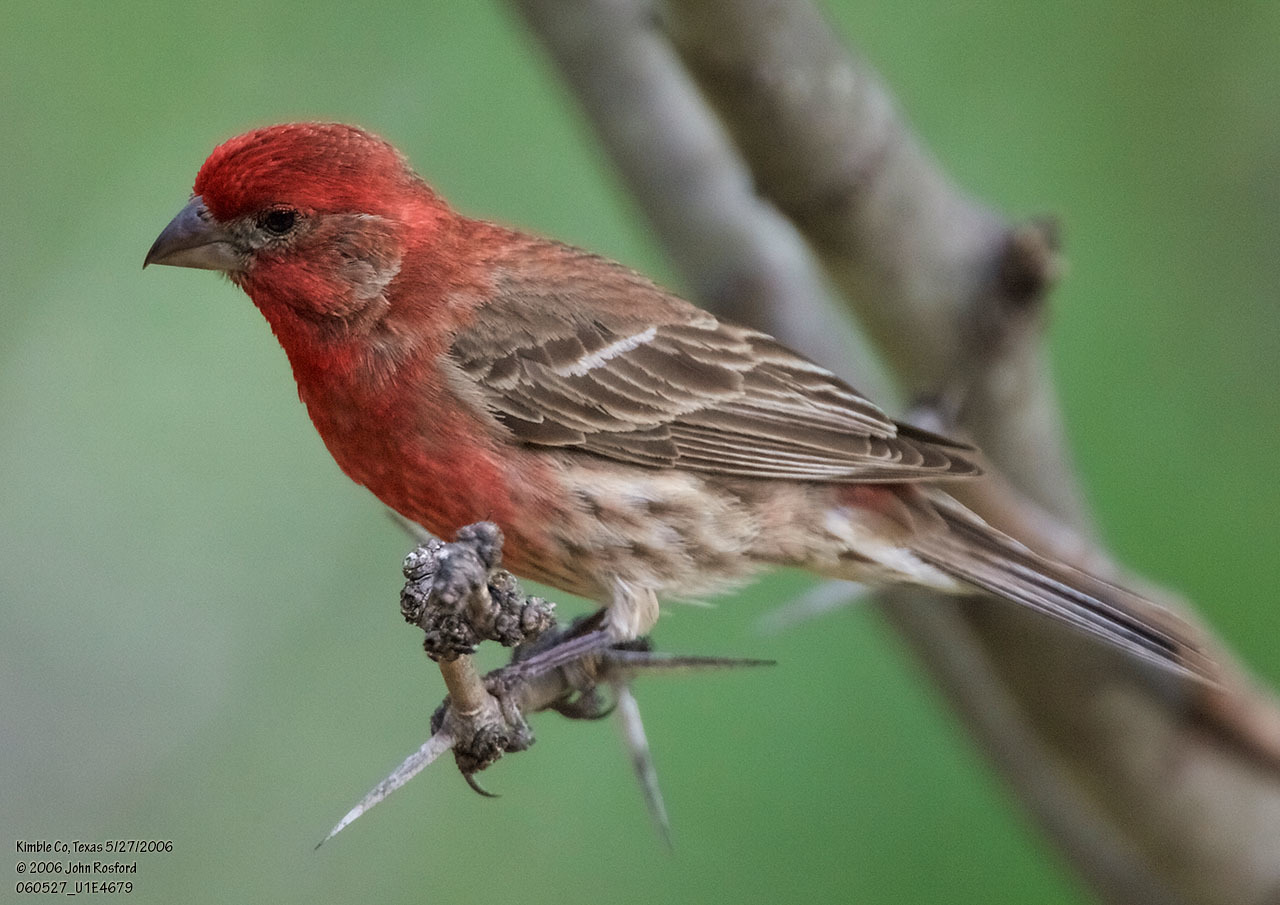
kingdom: Animalia
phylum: Chordata
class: Aves
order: Passeriformes
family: Fringillidae
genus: Haemorhous
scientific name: Haemorhous mexicanus
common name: House finch
